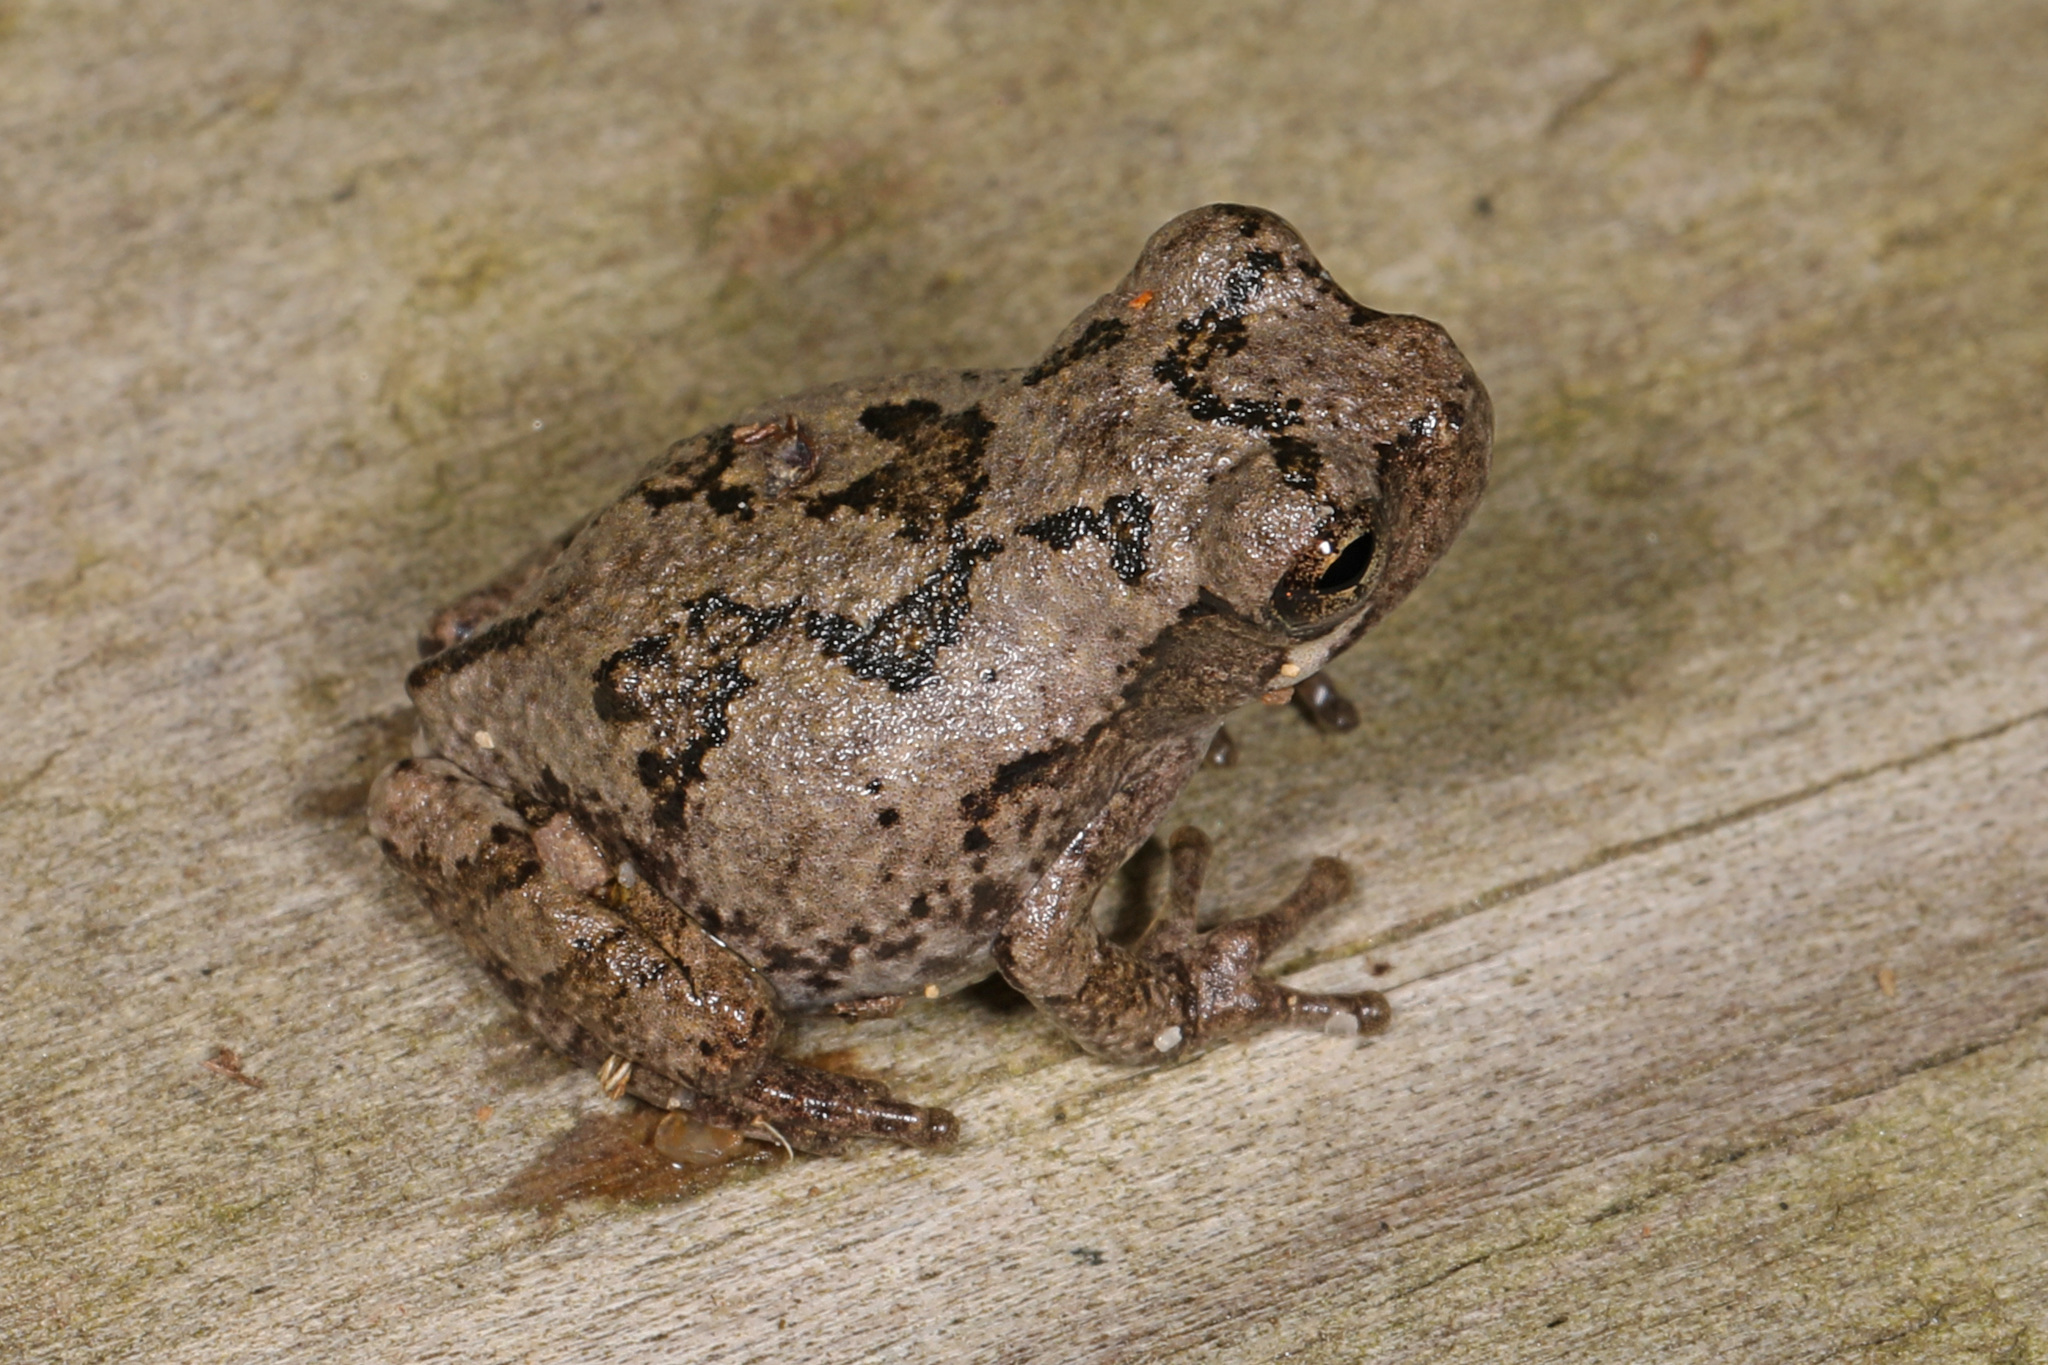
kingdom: Animalia
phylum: Chordata
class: Amphibia
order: Anura
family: Hylidae
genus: Hyla
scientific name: Hyla
